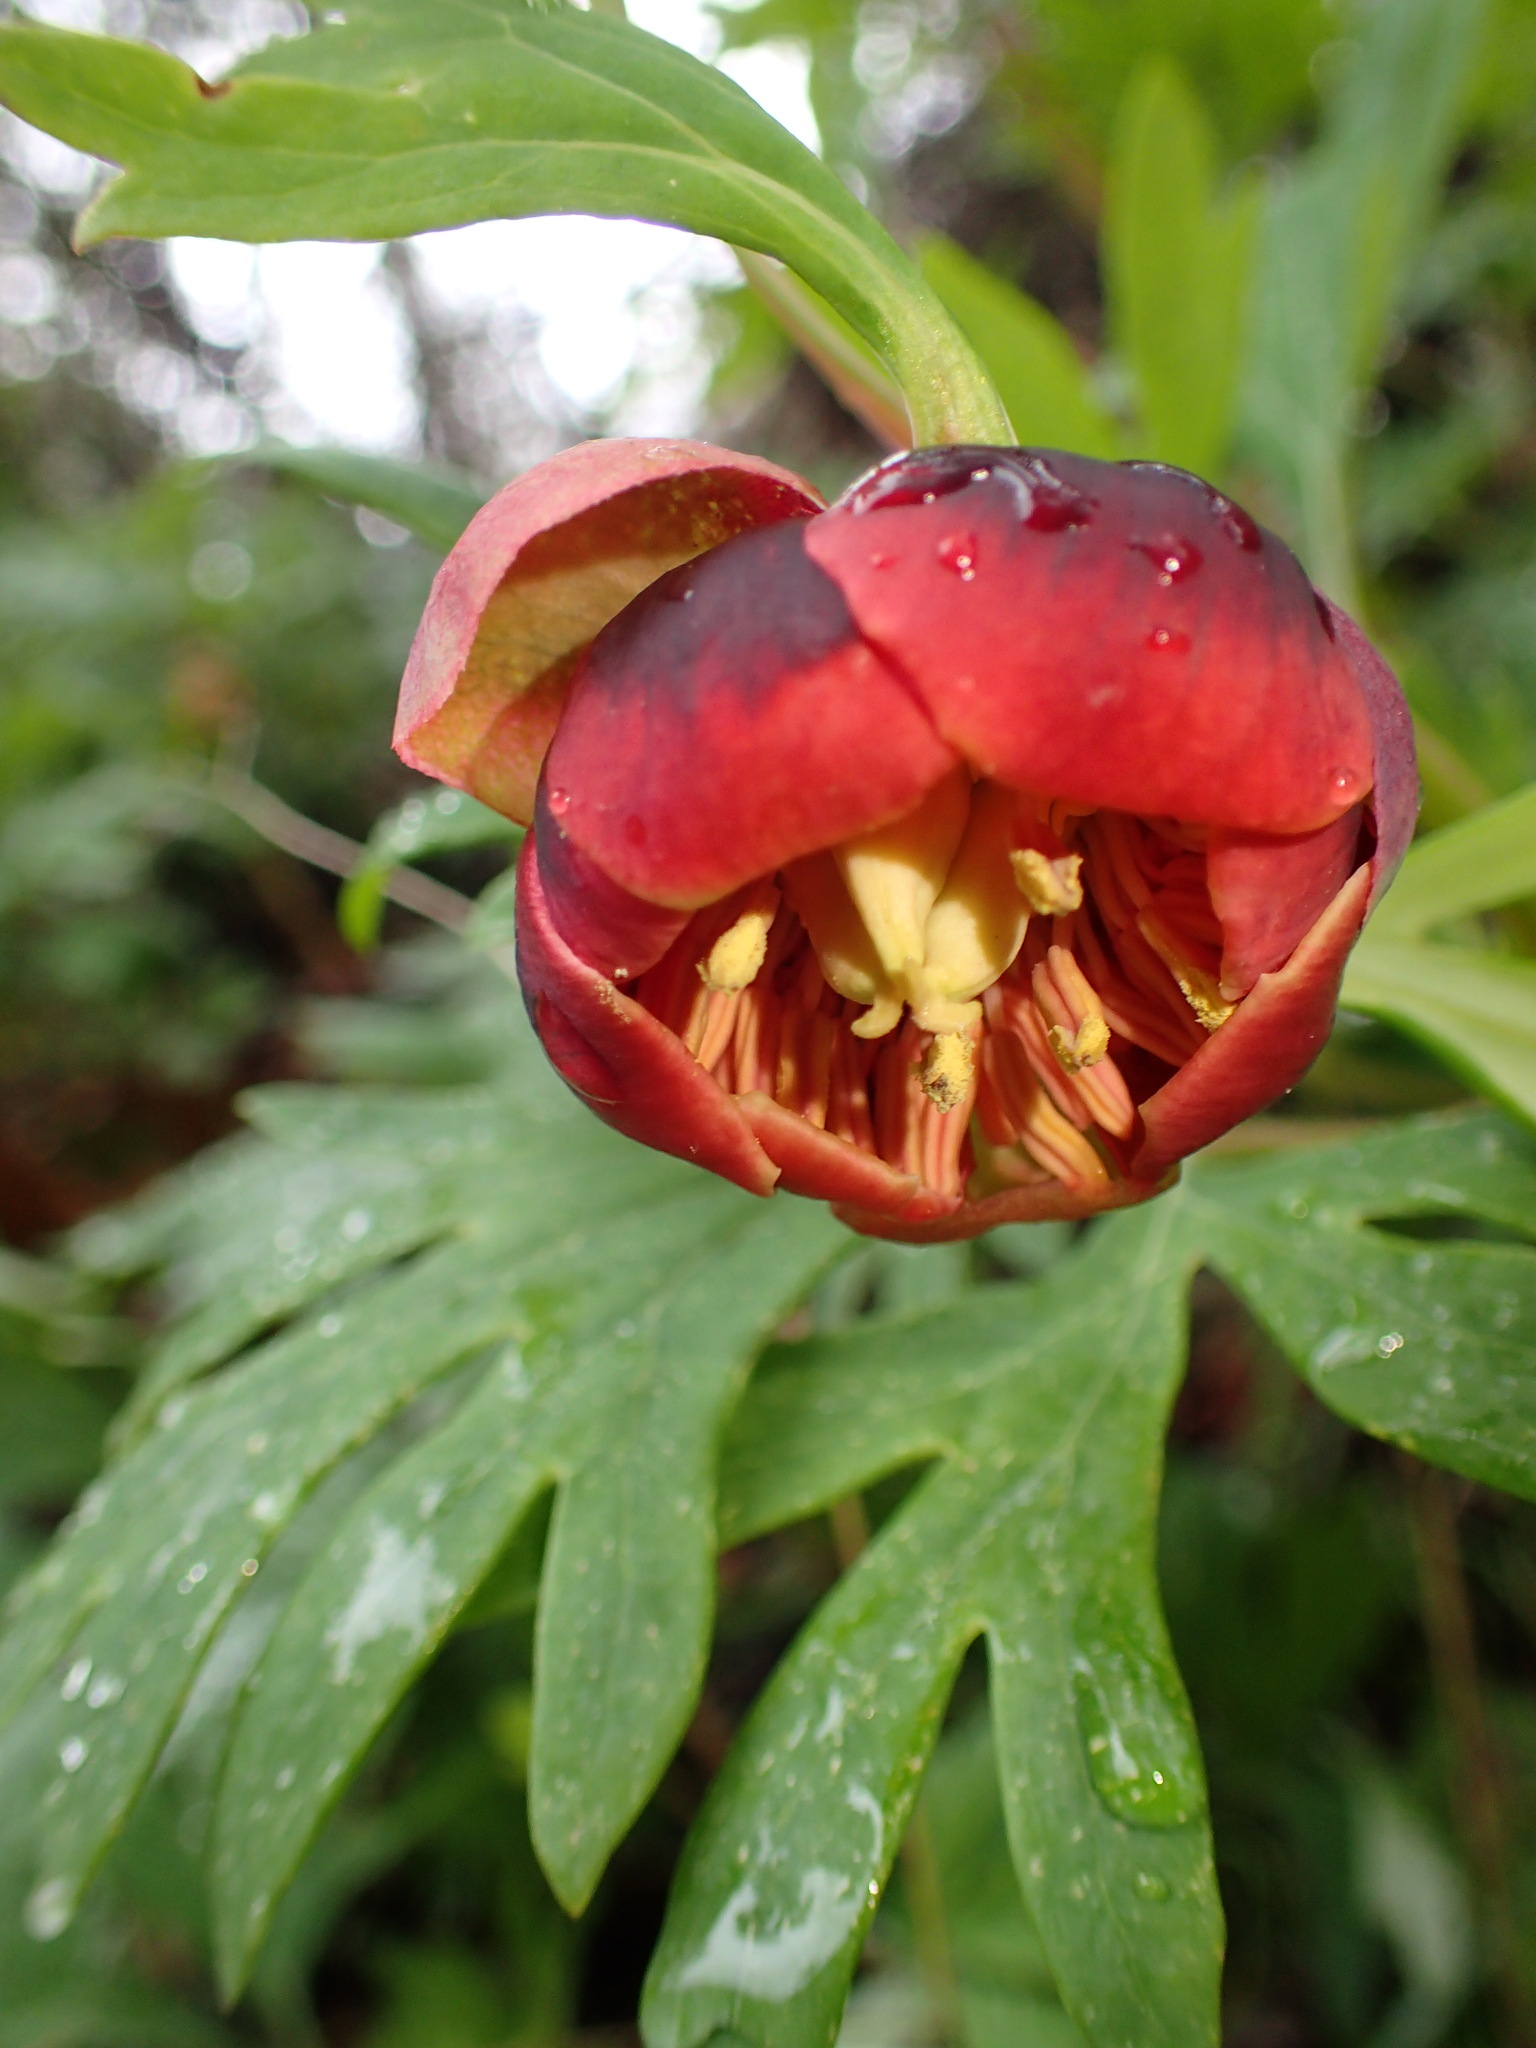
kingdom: Plantae
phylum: Tracheophyta
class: Magnoliopsida
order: Saxifragales
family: Paeoniaceae
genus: Paeonia
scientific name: Paeonia californica
